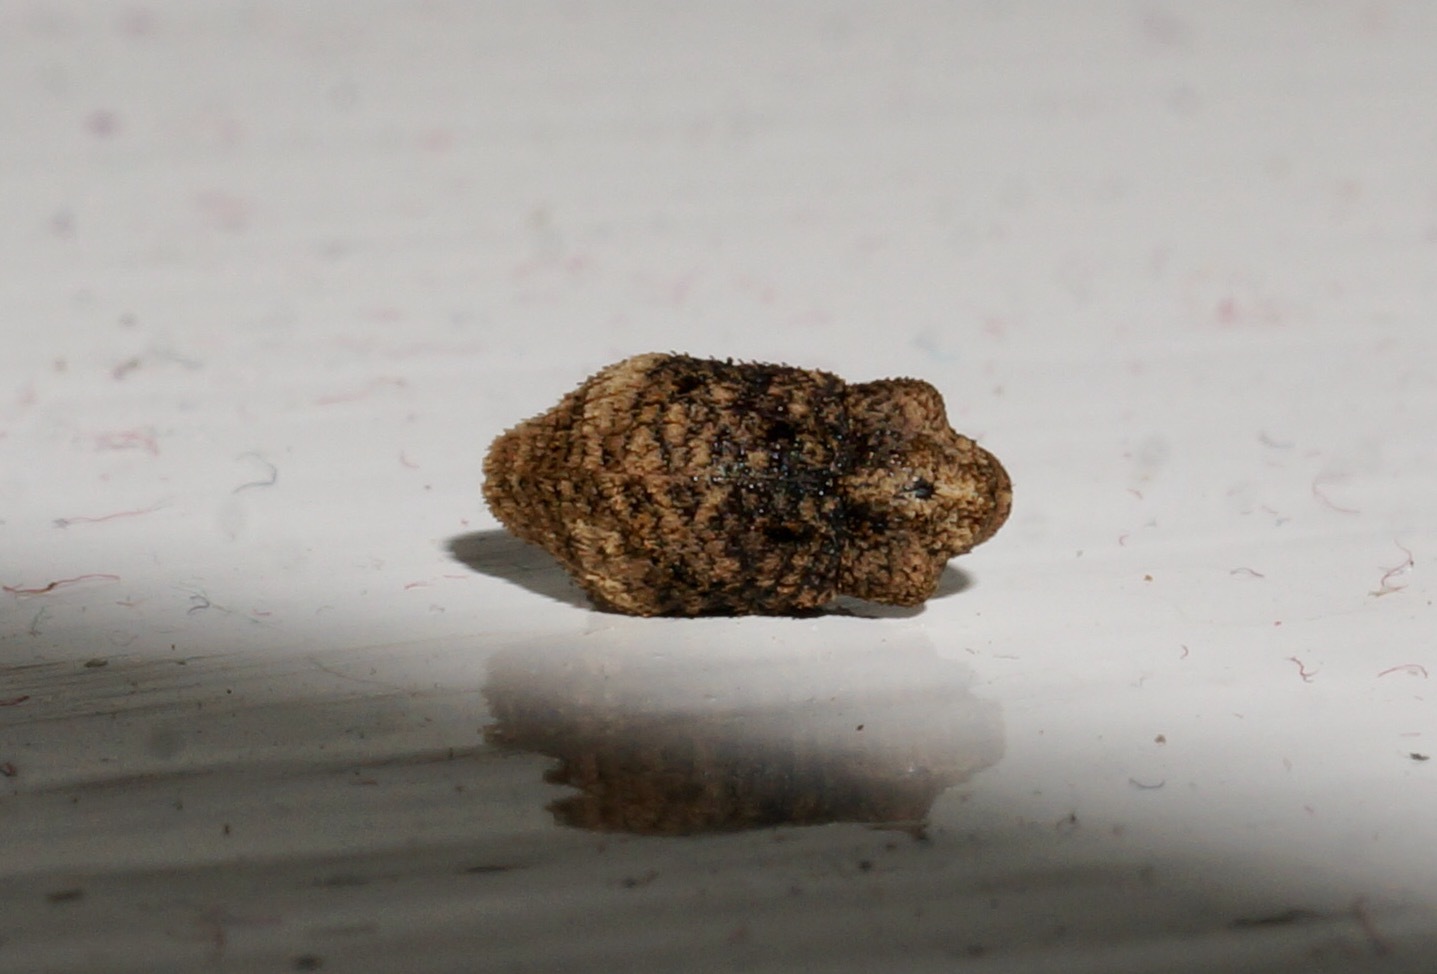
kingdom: Animalia
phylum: Arthropoda
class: Insecta
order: Coleoptera
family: Curculionidae
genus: Tychanus
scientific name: Tychanus vexatus
